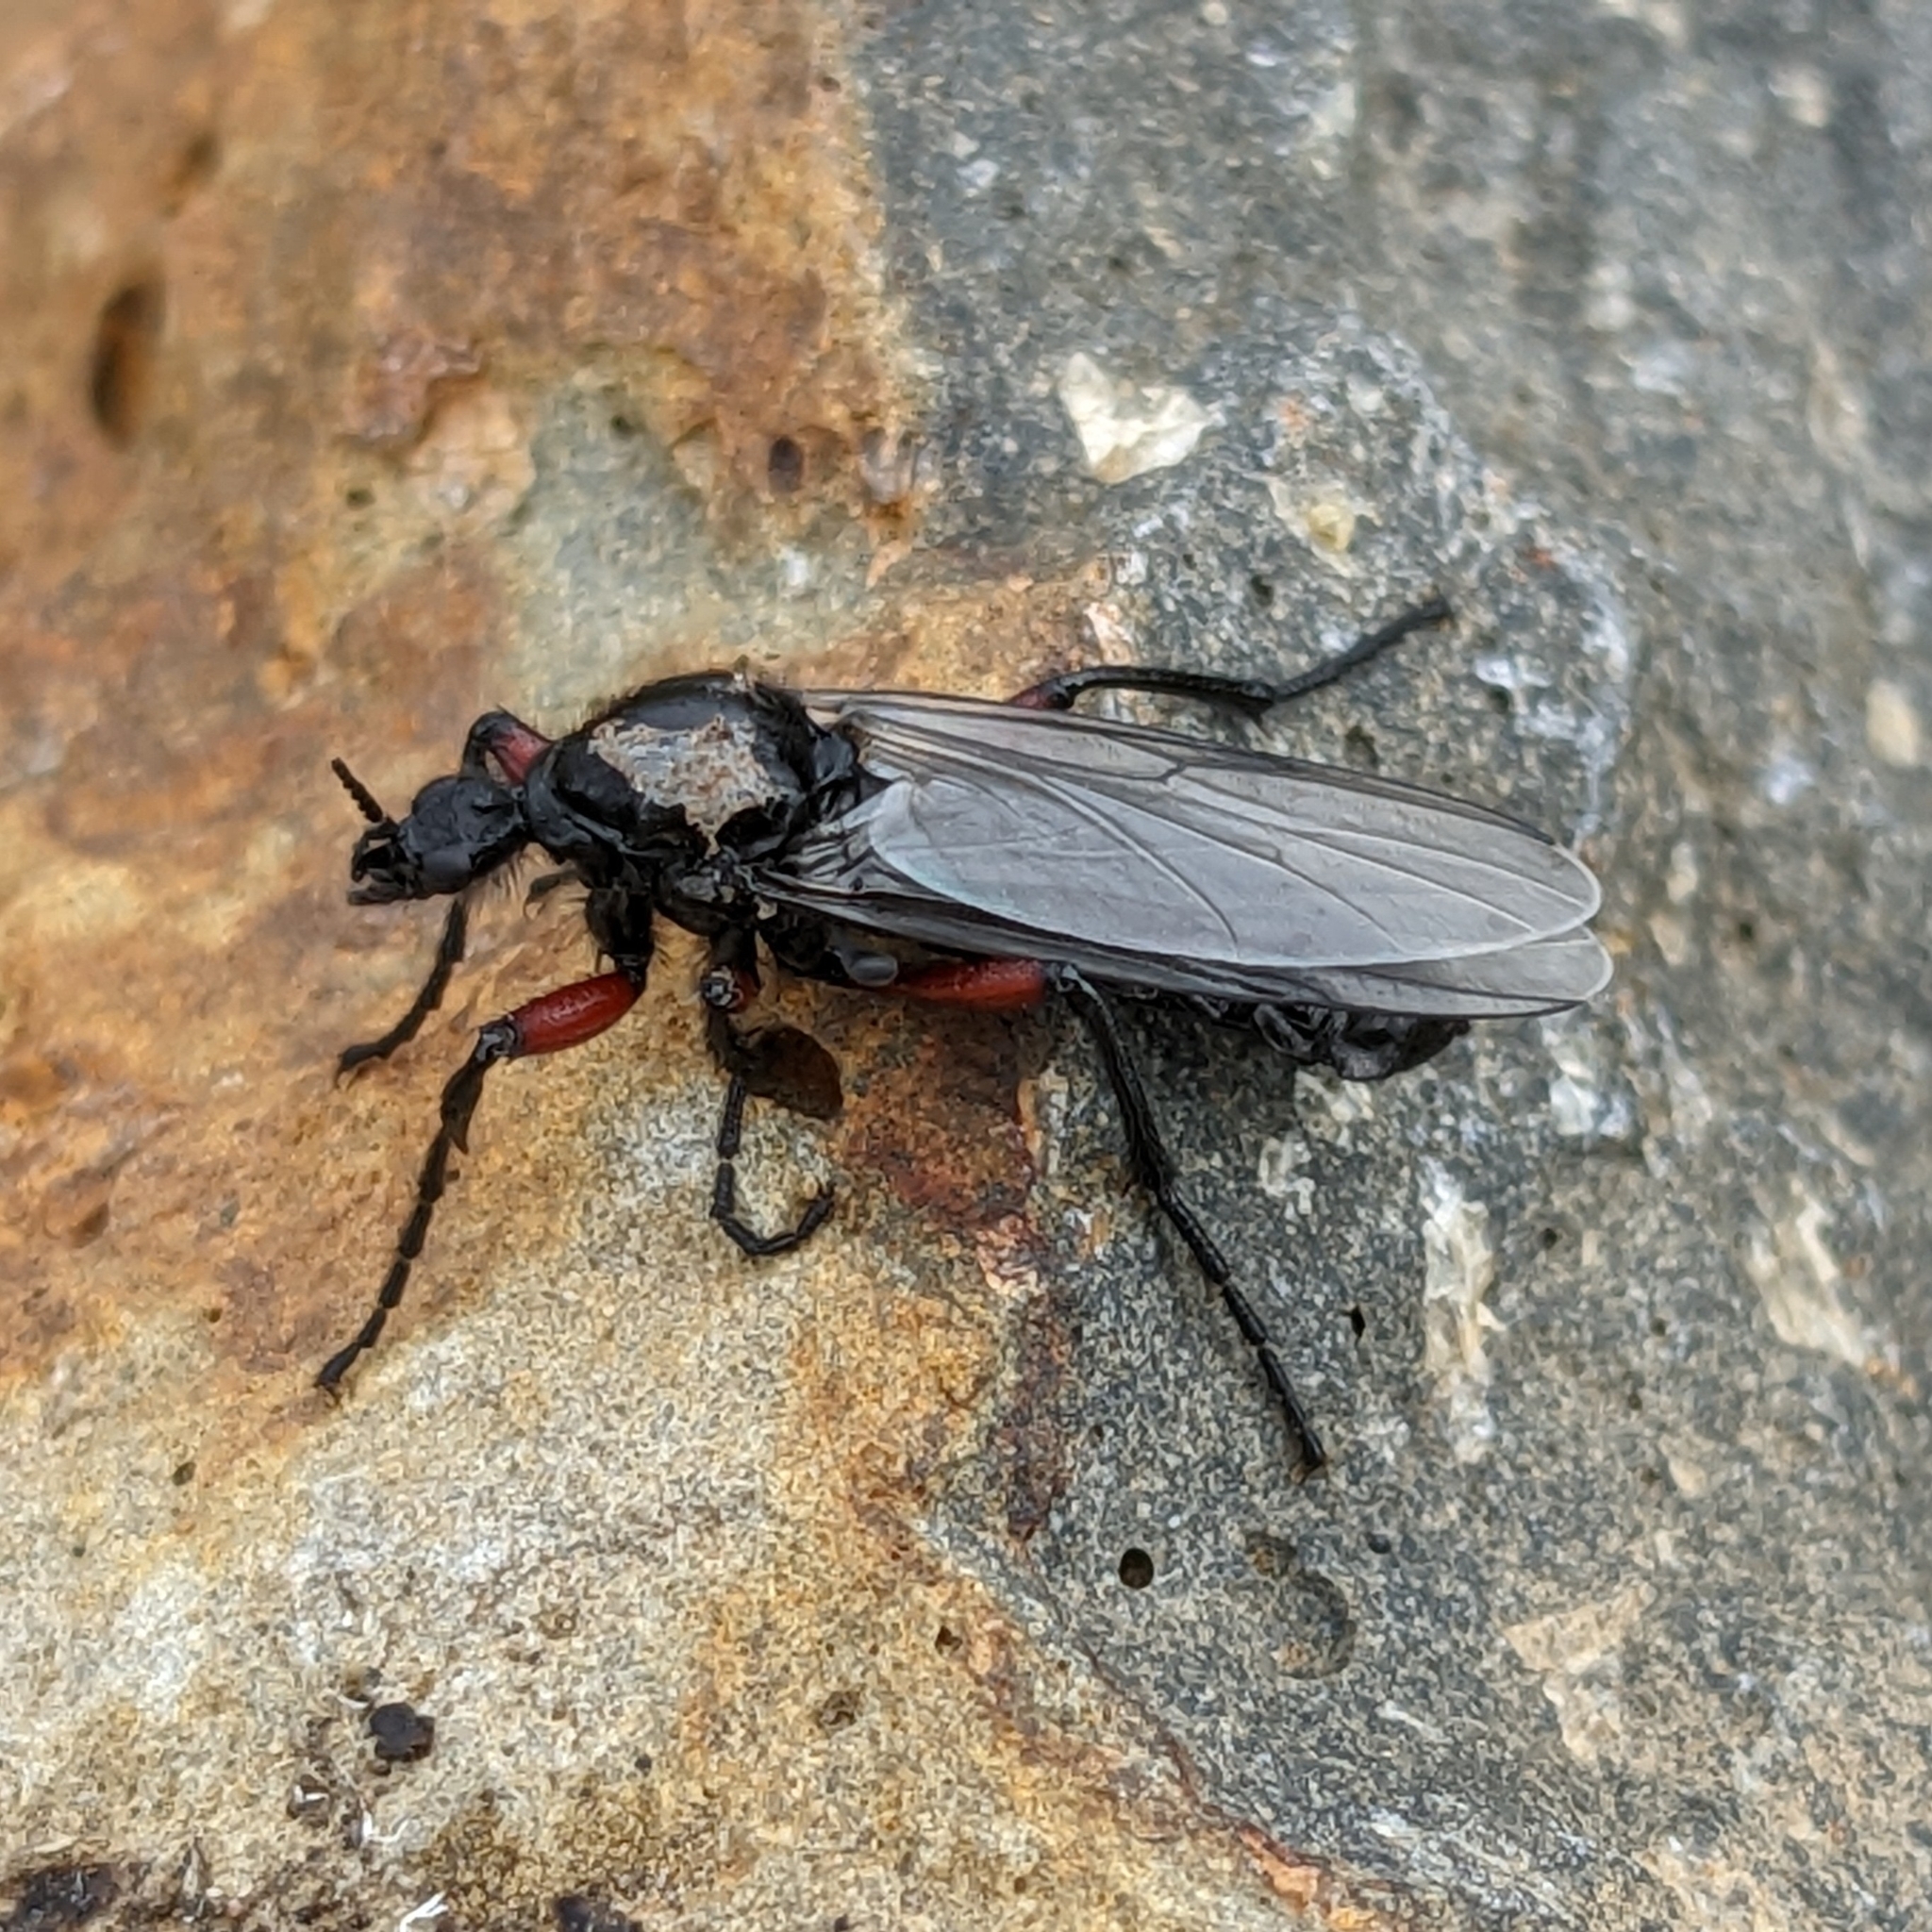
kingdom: Animalia
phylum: Arthropoda
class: Insecta
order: Diptera
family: Bibionidae
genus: Bibio
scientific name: Bibio pomonae
